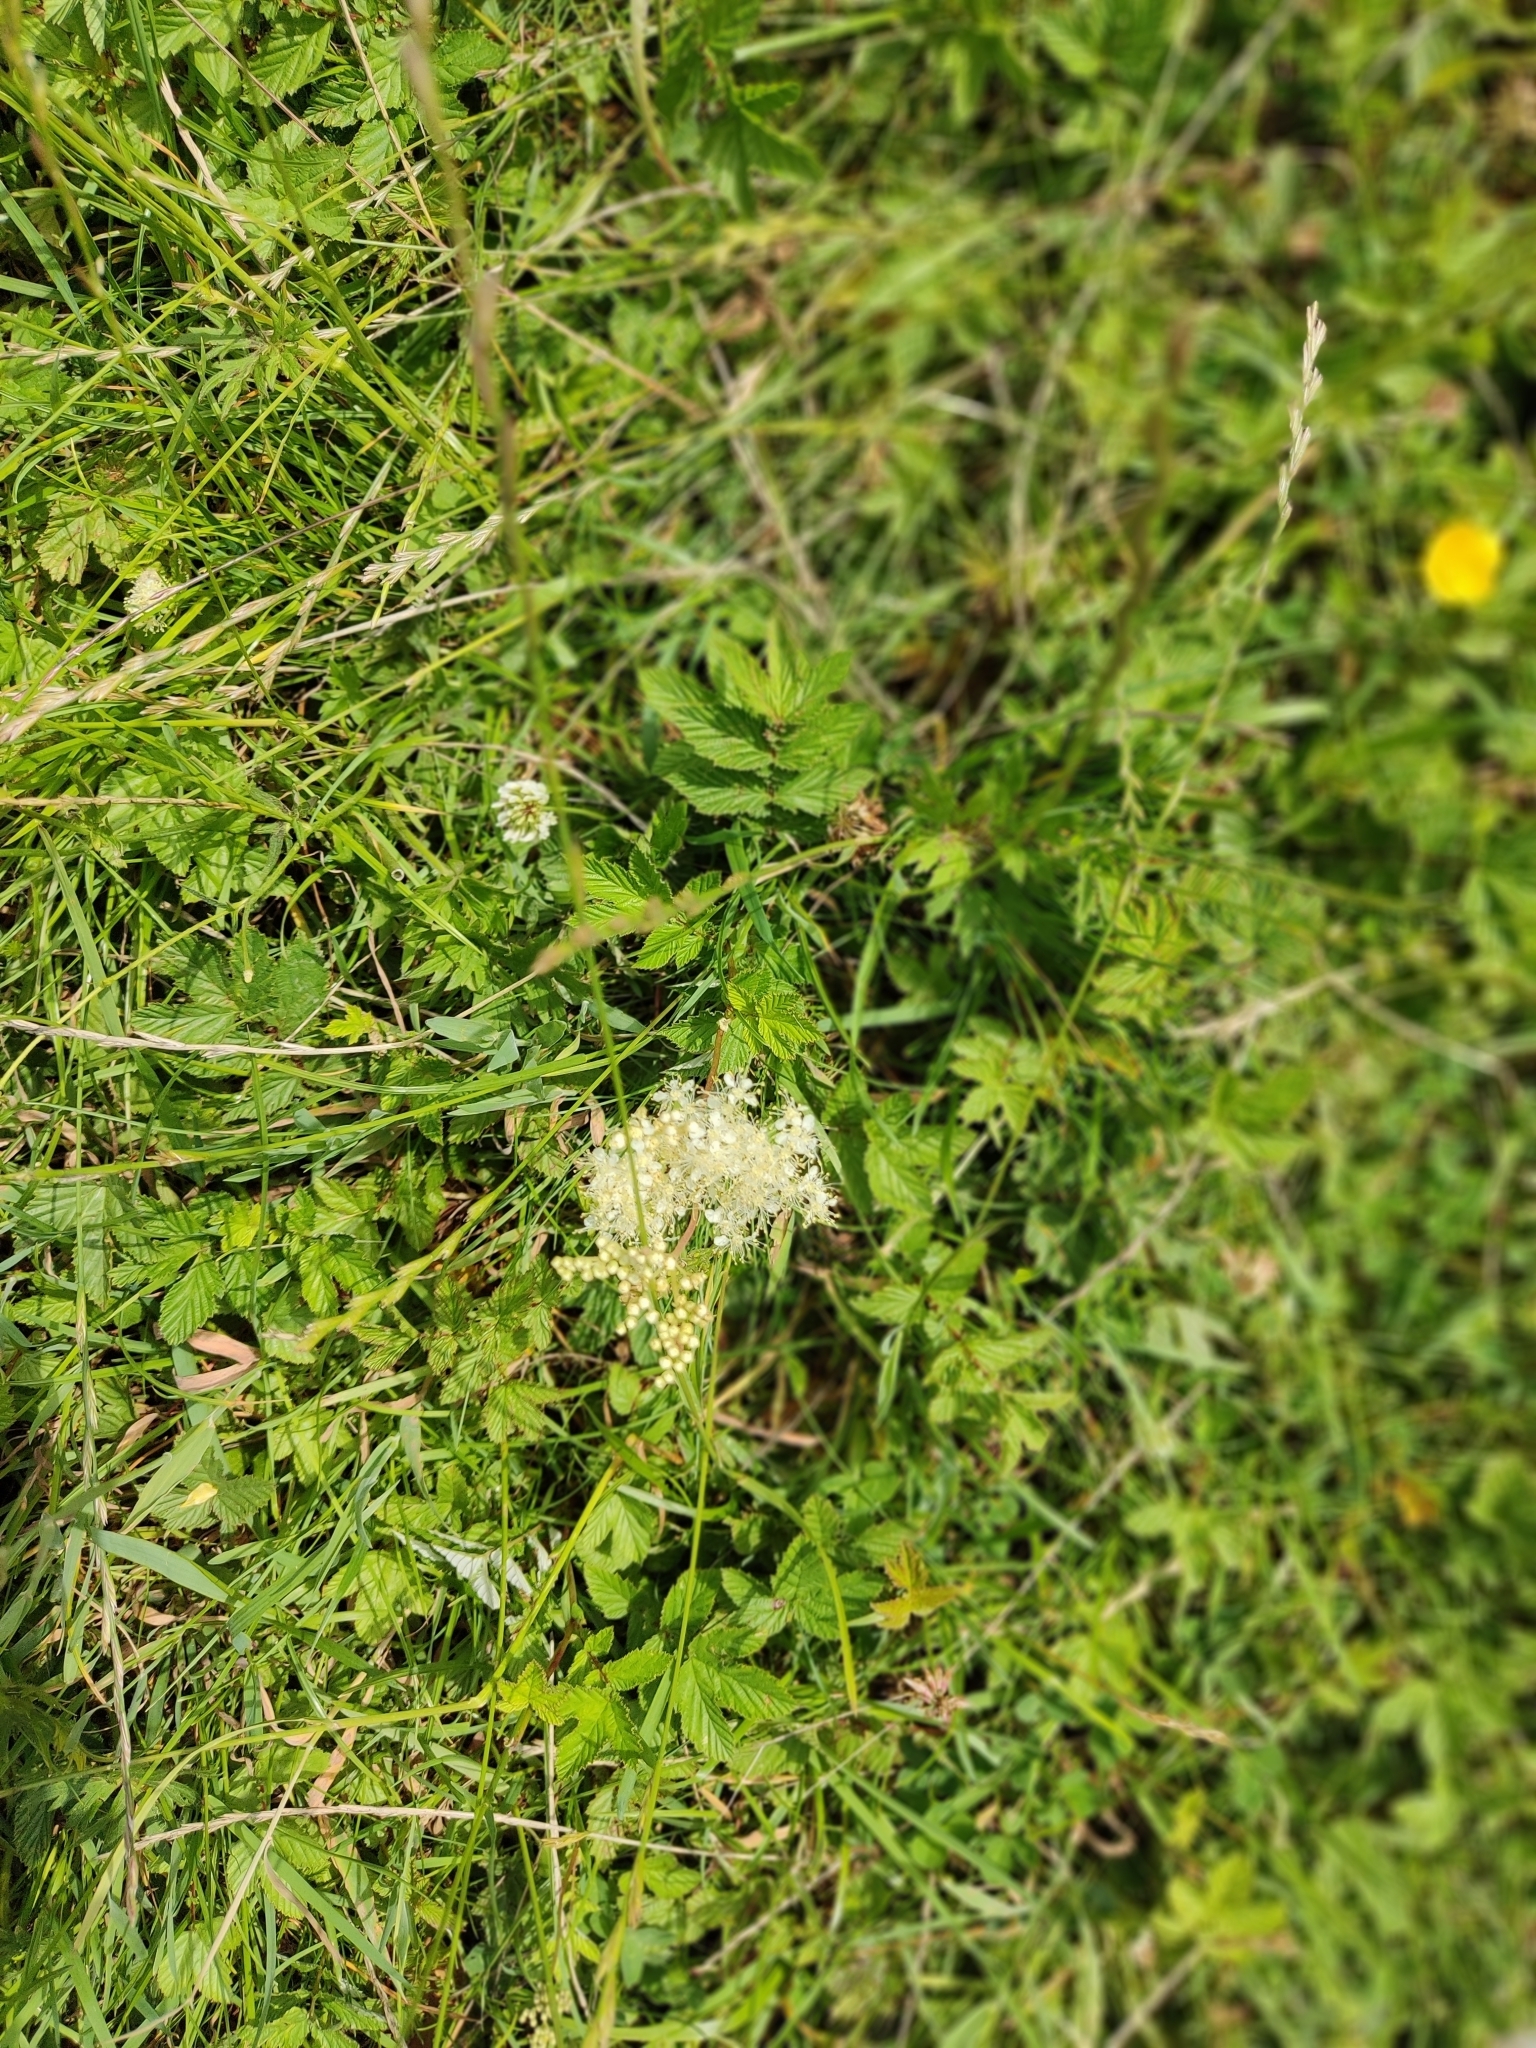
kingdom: Plantae
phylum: Tracheophyta
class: Magnoliopsida
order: Rosales
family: Rosaceae
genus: Filipendula
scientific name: Filipendula ulmaria
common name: Meadowsweet
